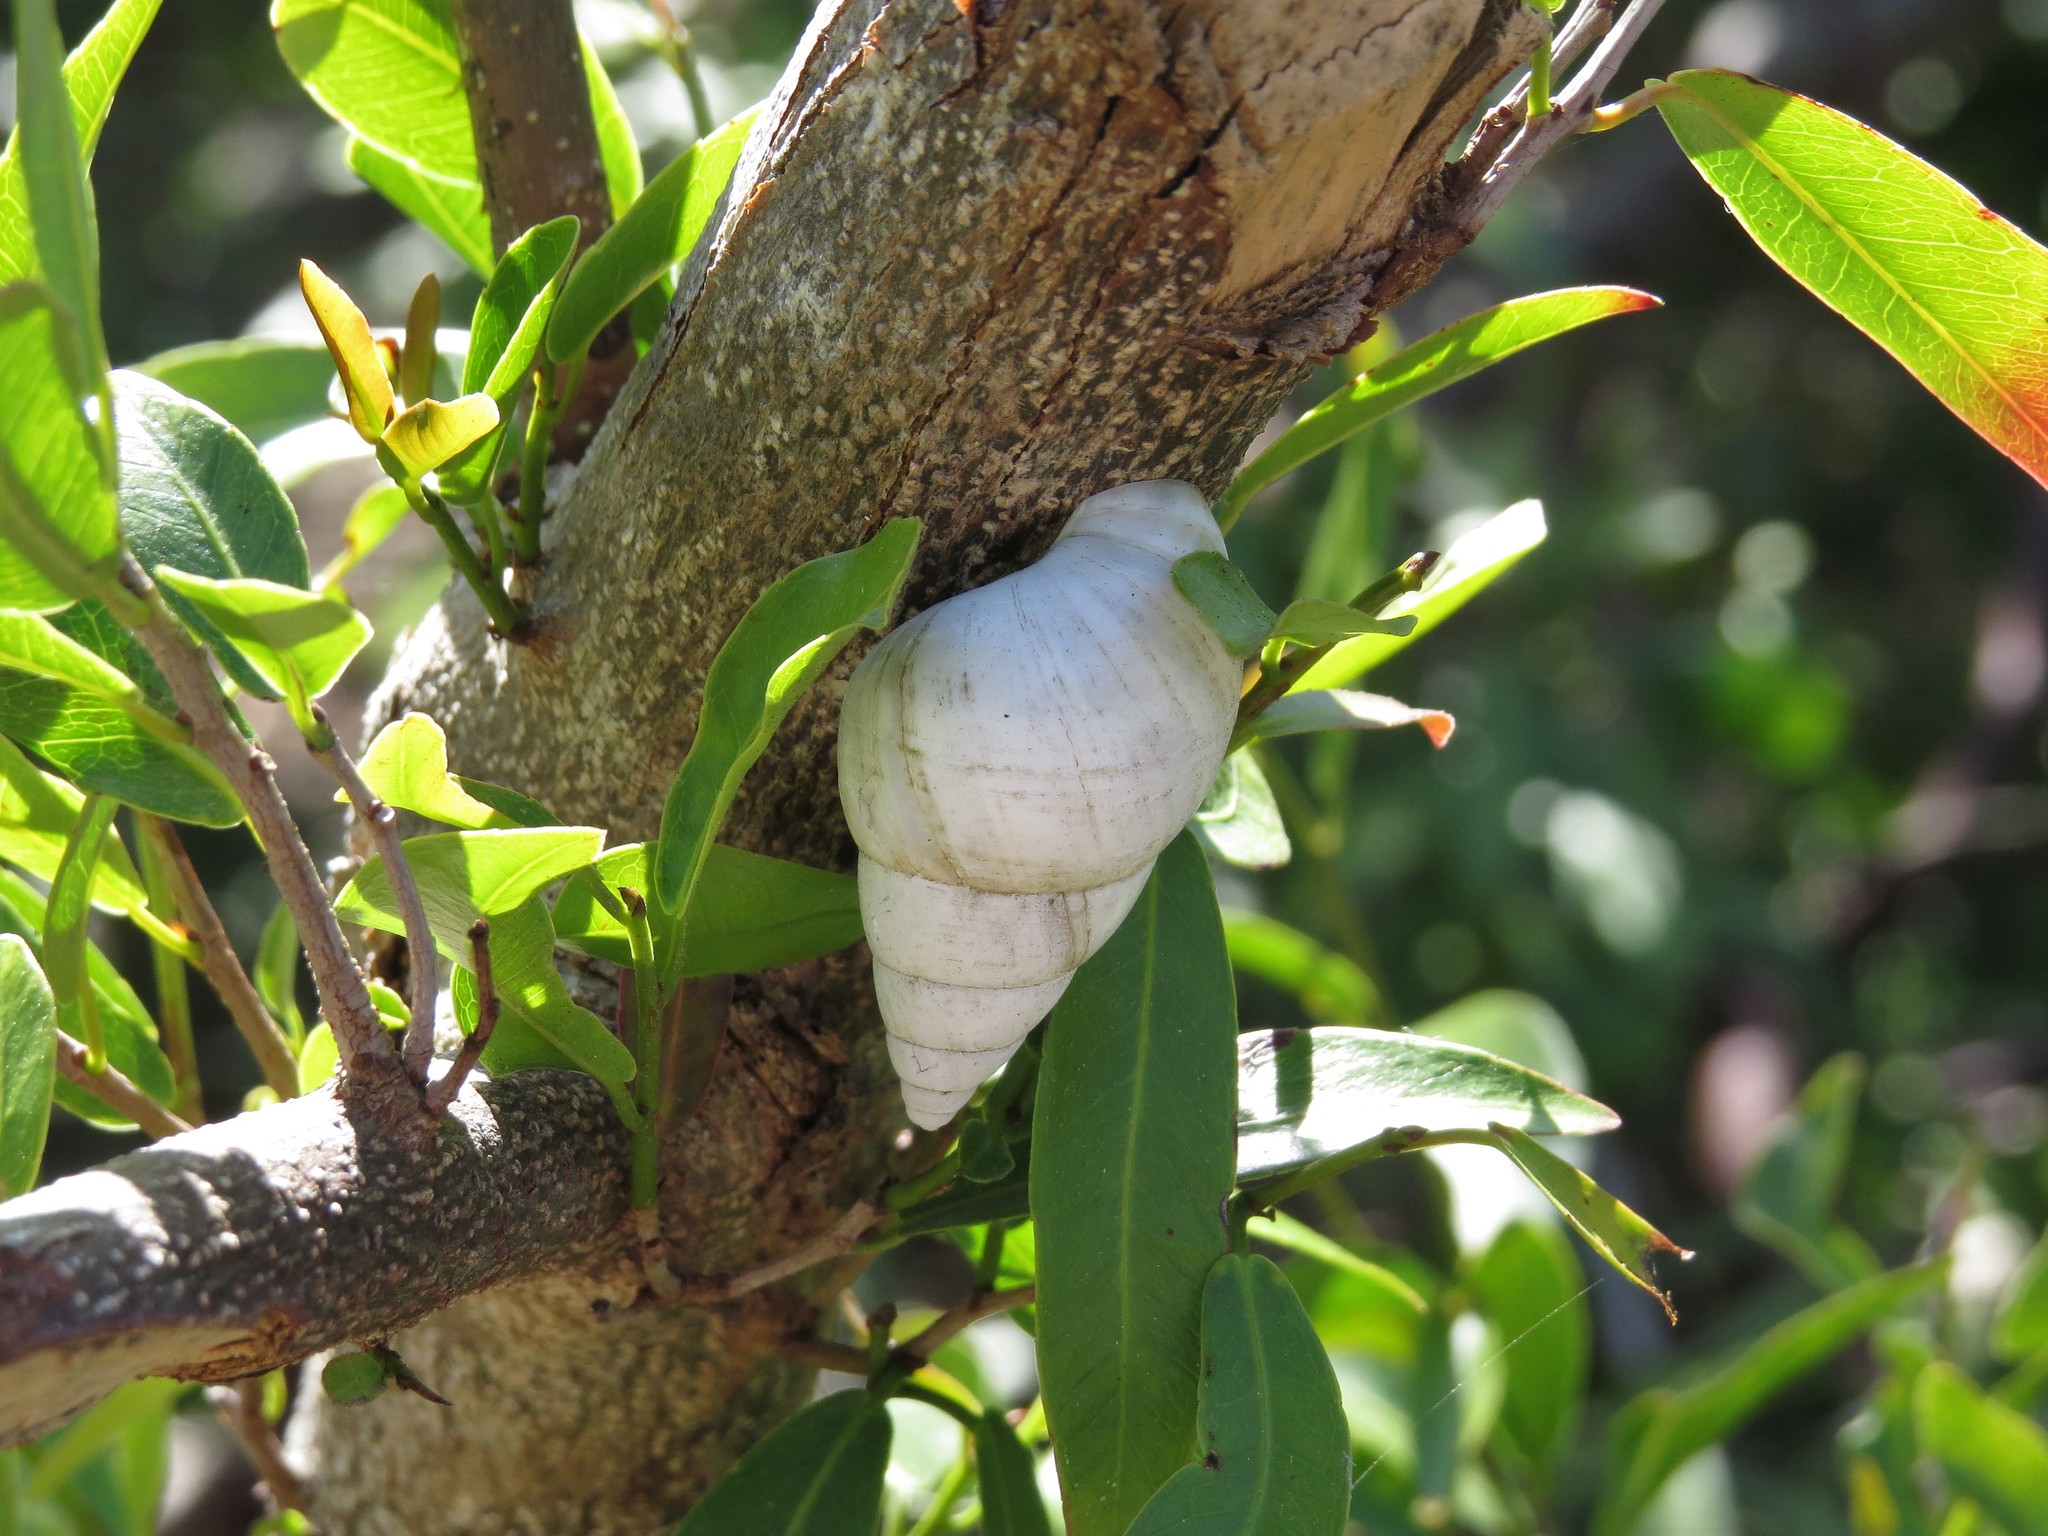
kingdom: Animalia
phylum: Mollusca
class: Gastropoda
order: Stylommatophora
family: Orthalicidae
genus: Liguus
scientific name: Liguus fasciatus
